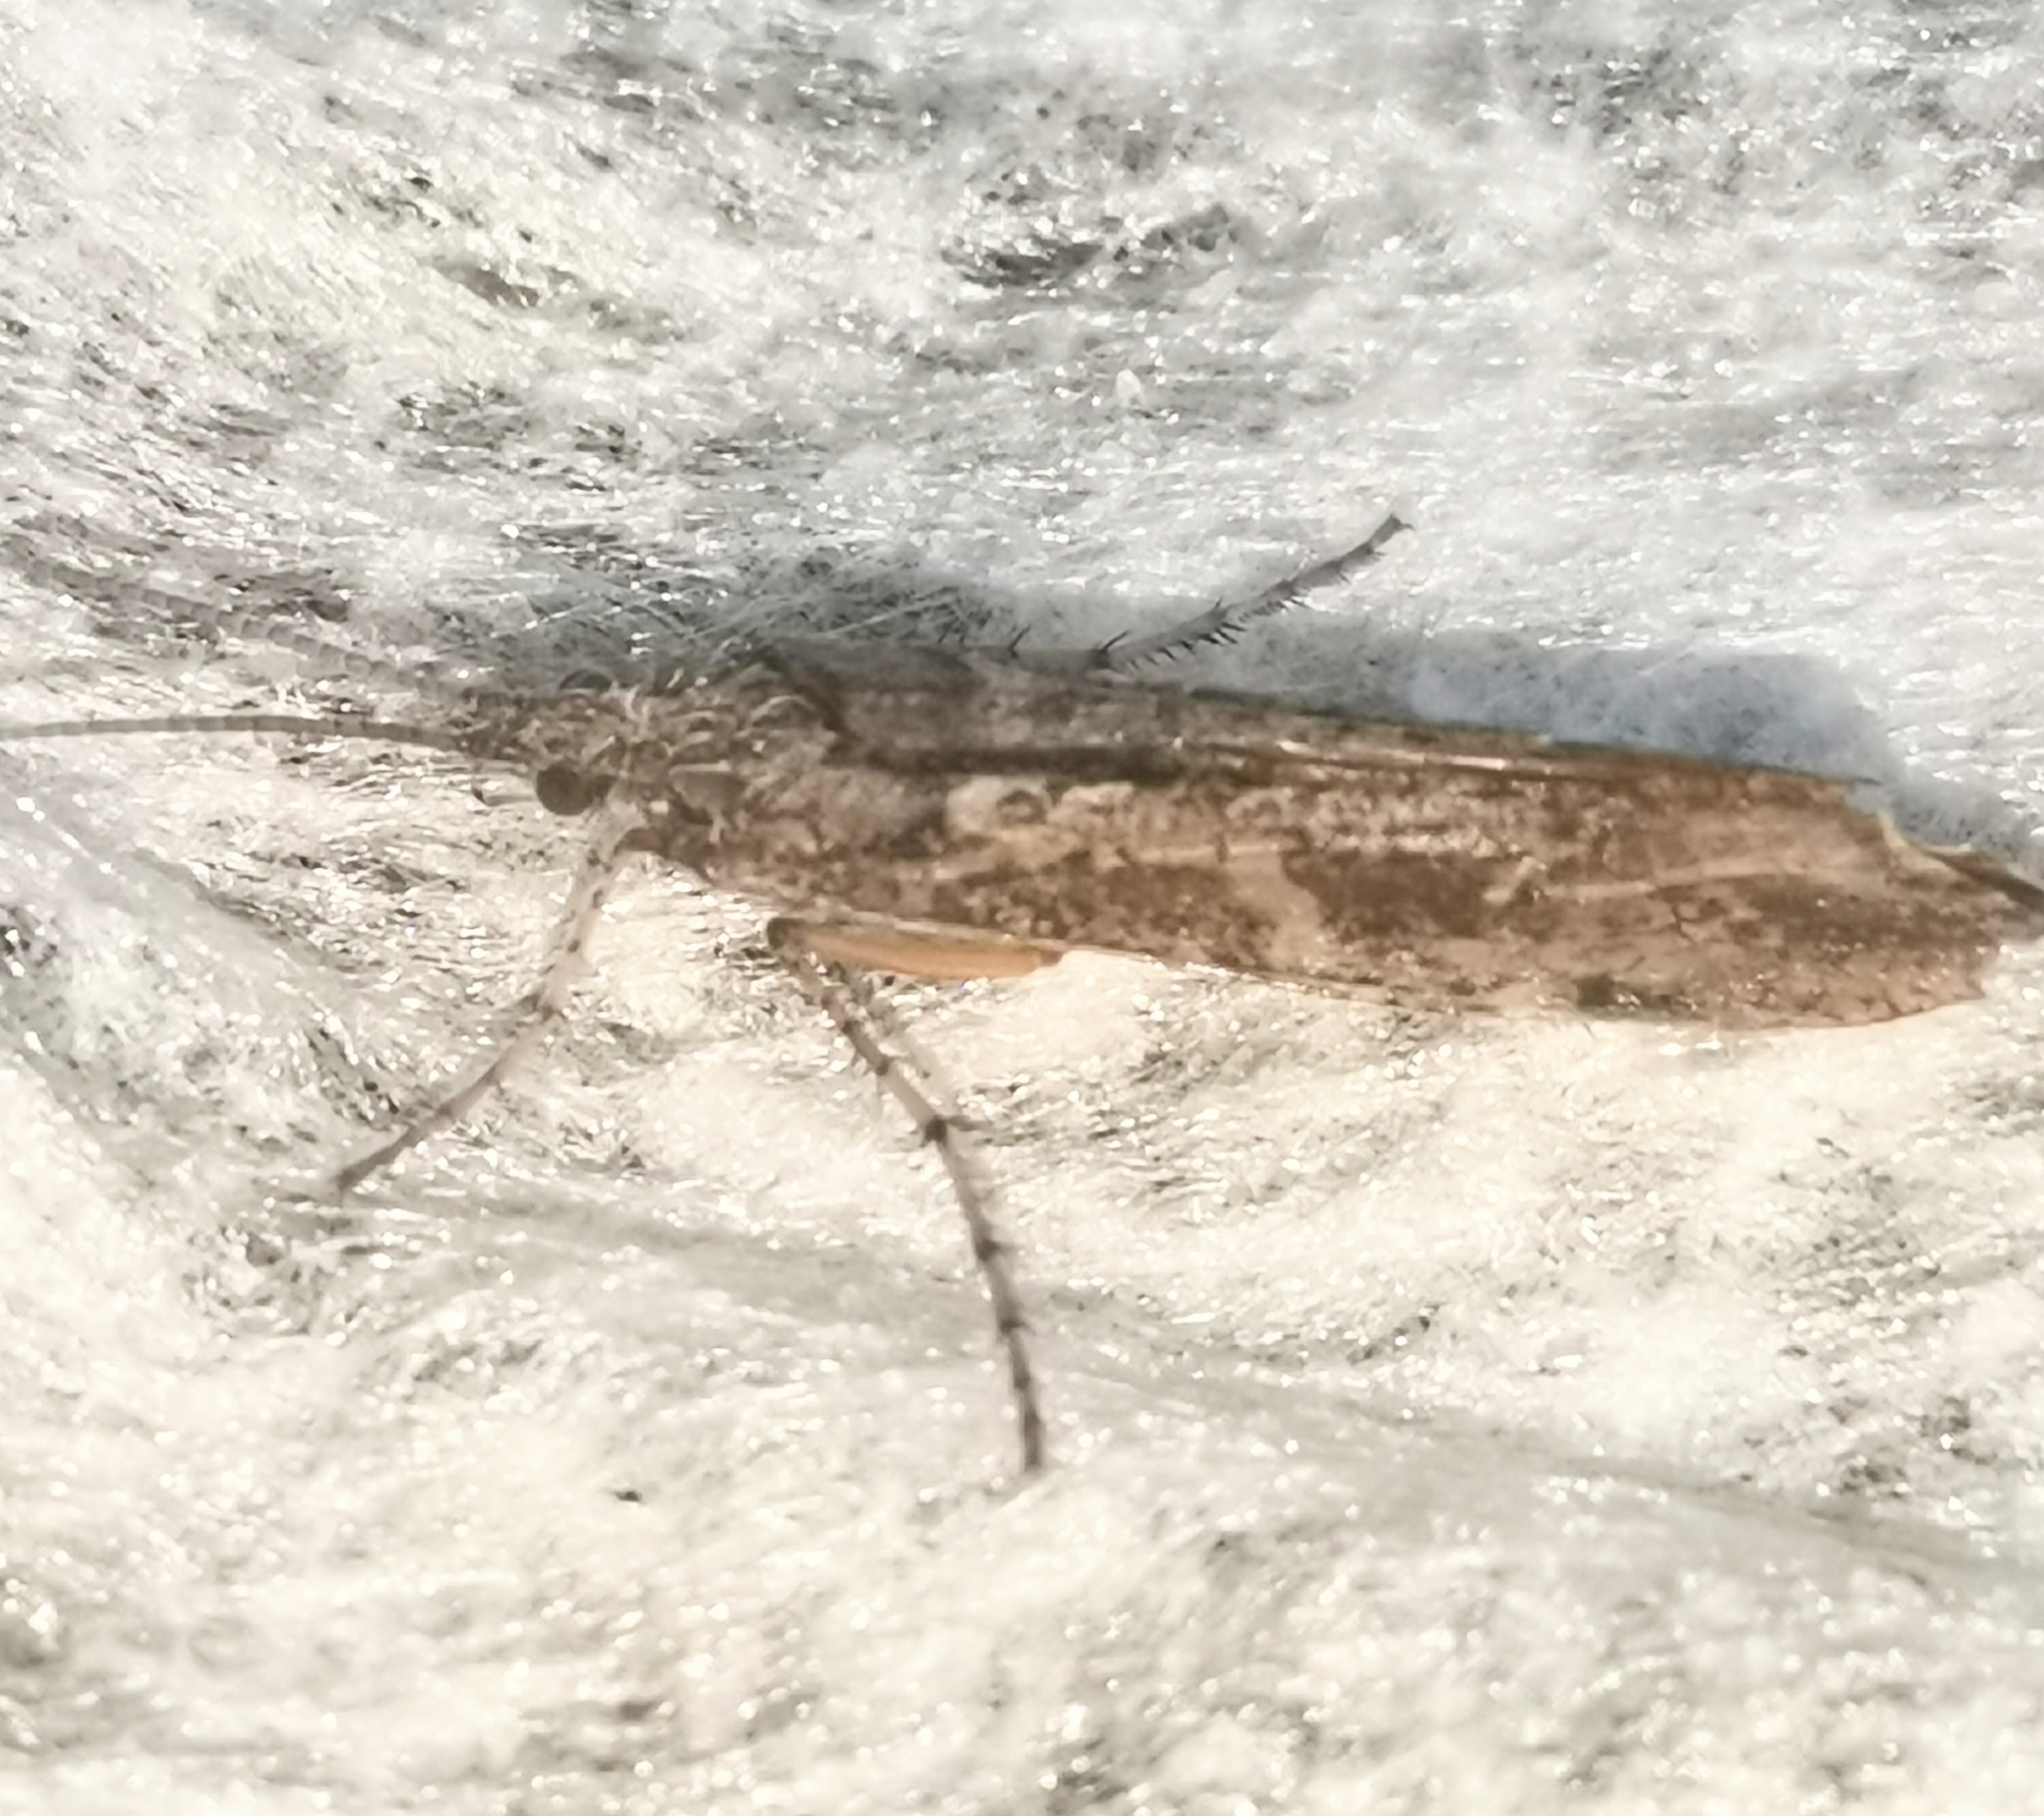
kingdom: Animalia
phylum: Arthropoda
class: Insecta
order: Trichoptera
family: Limnephilidae
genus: Glyphotaelius
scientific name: Glyphotaelius pellucidus
